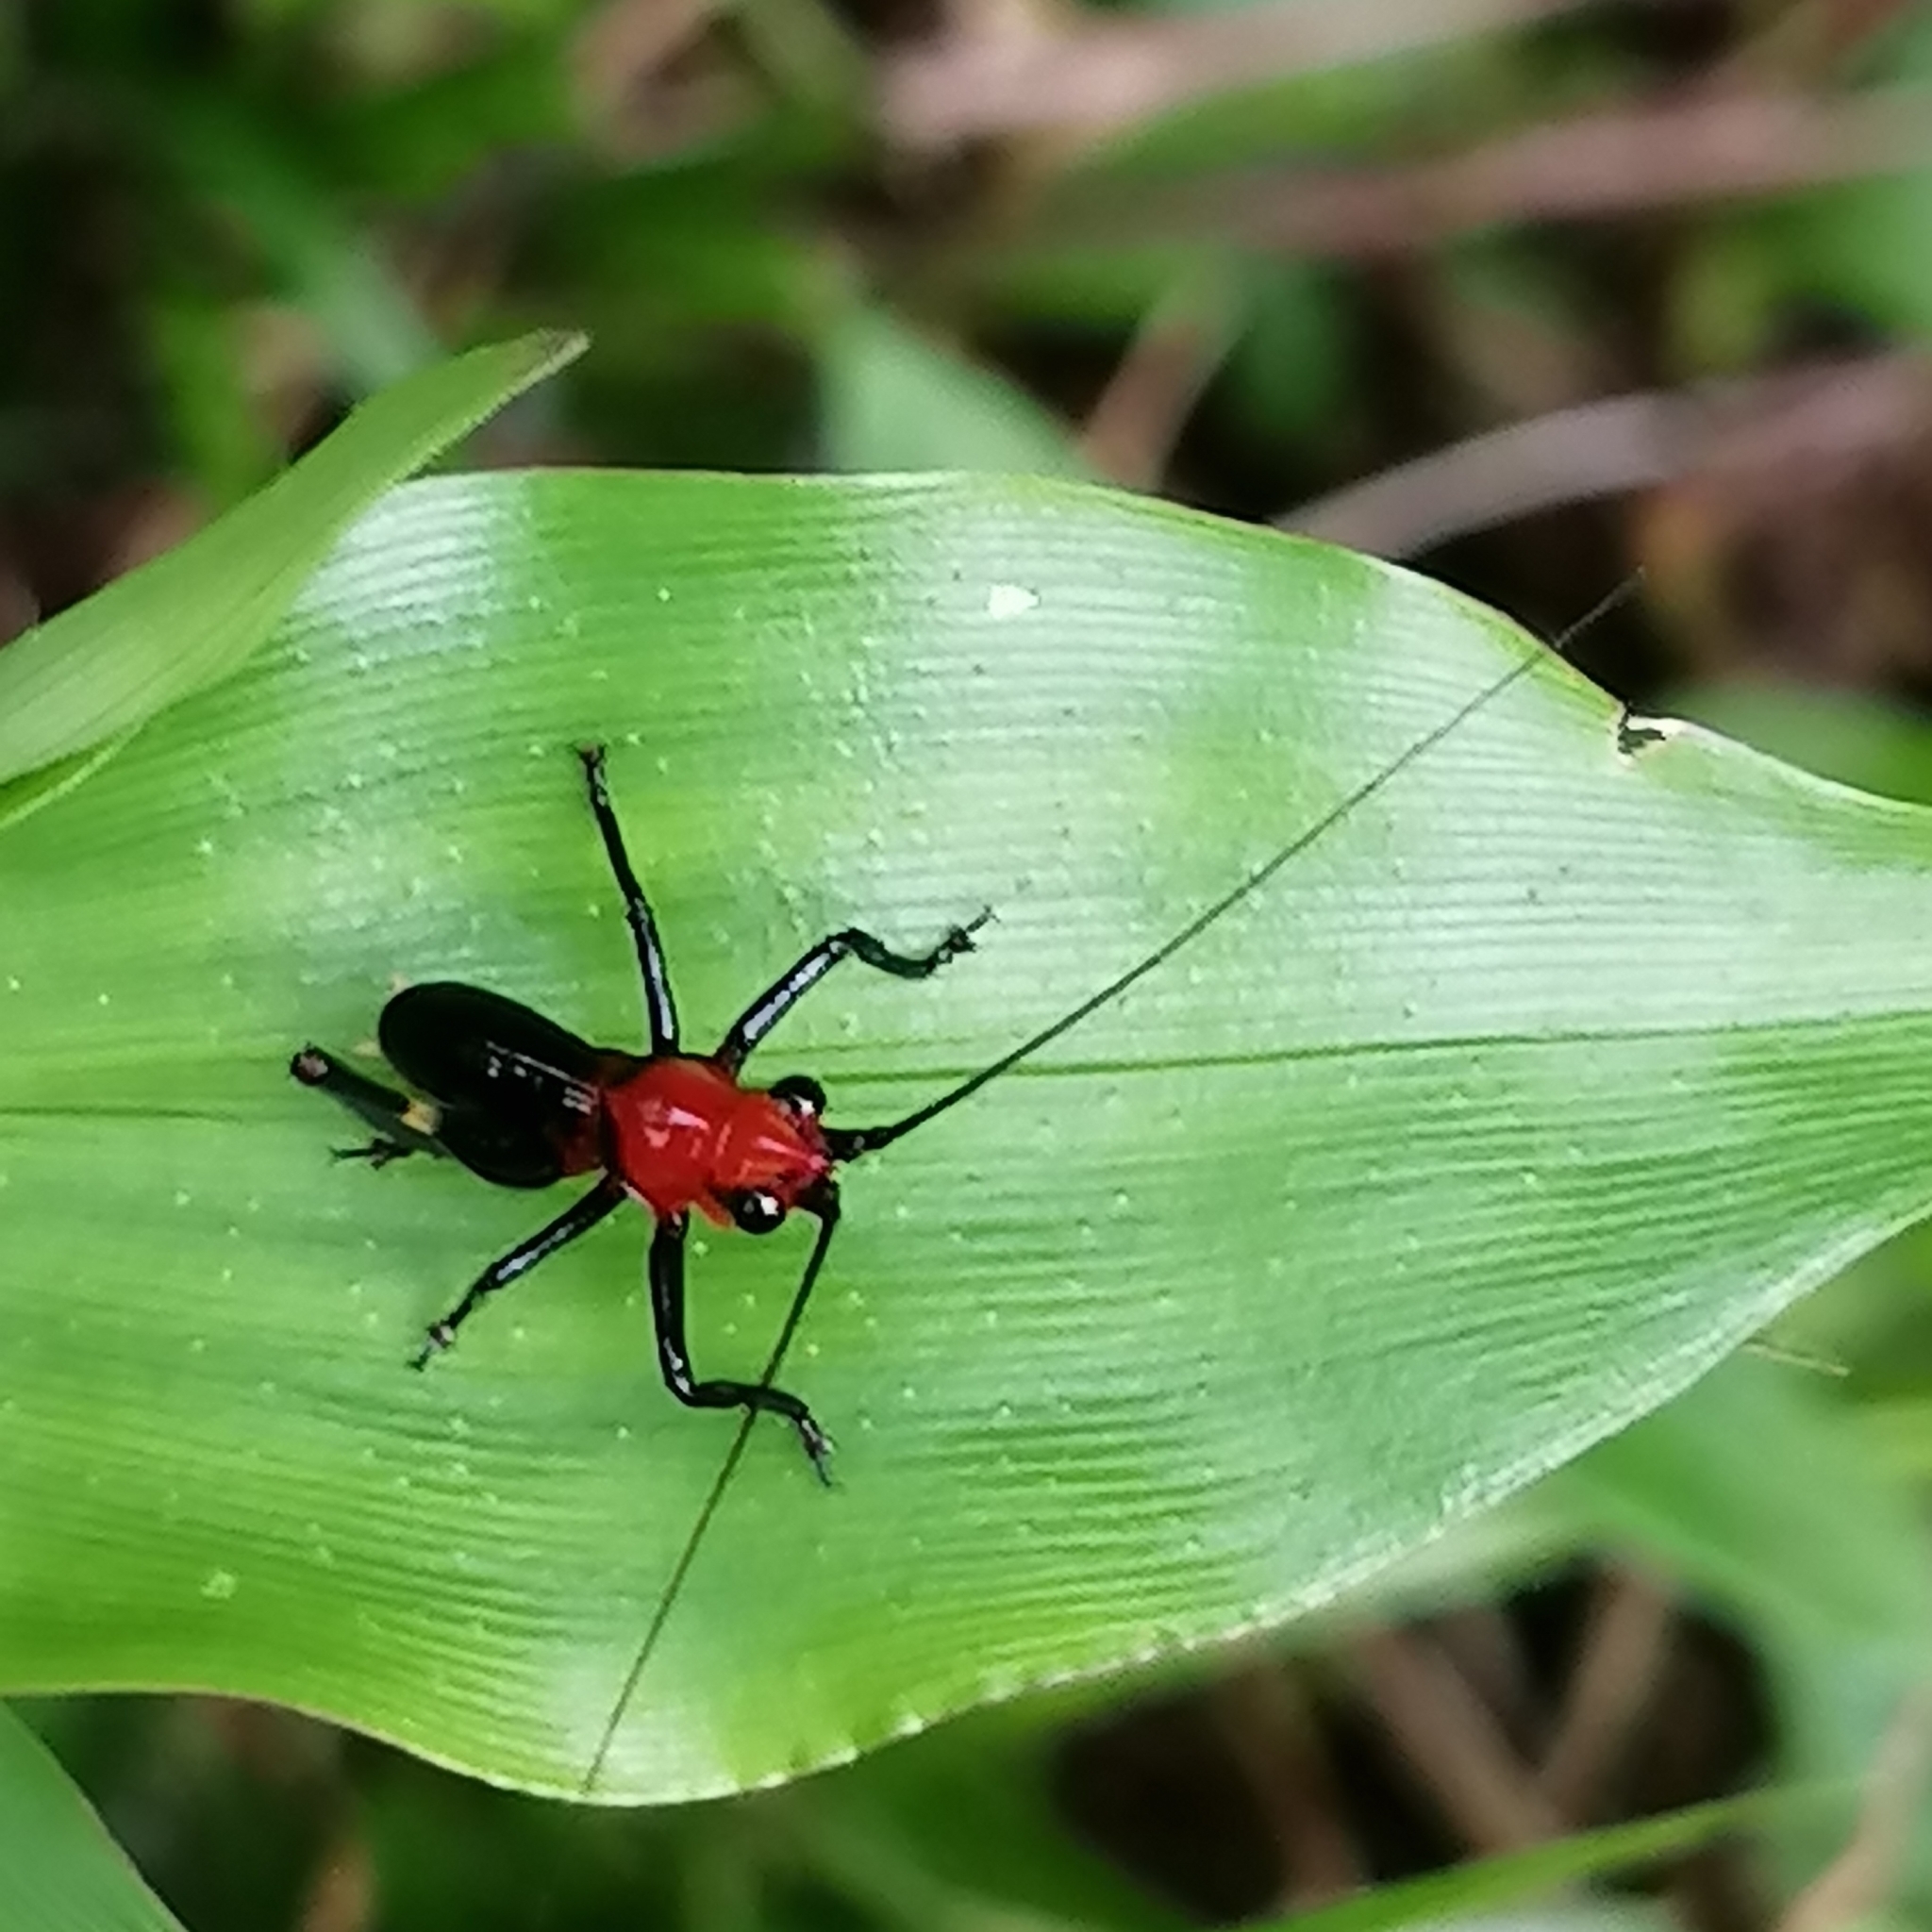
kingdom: Animalia
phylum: Arthropoda
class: Insecta
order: Orthoptera
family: Tettigoniidae
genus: Conocephalus
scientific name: Conocephalus melaenus
